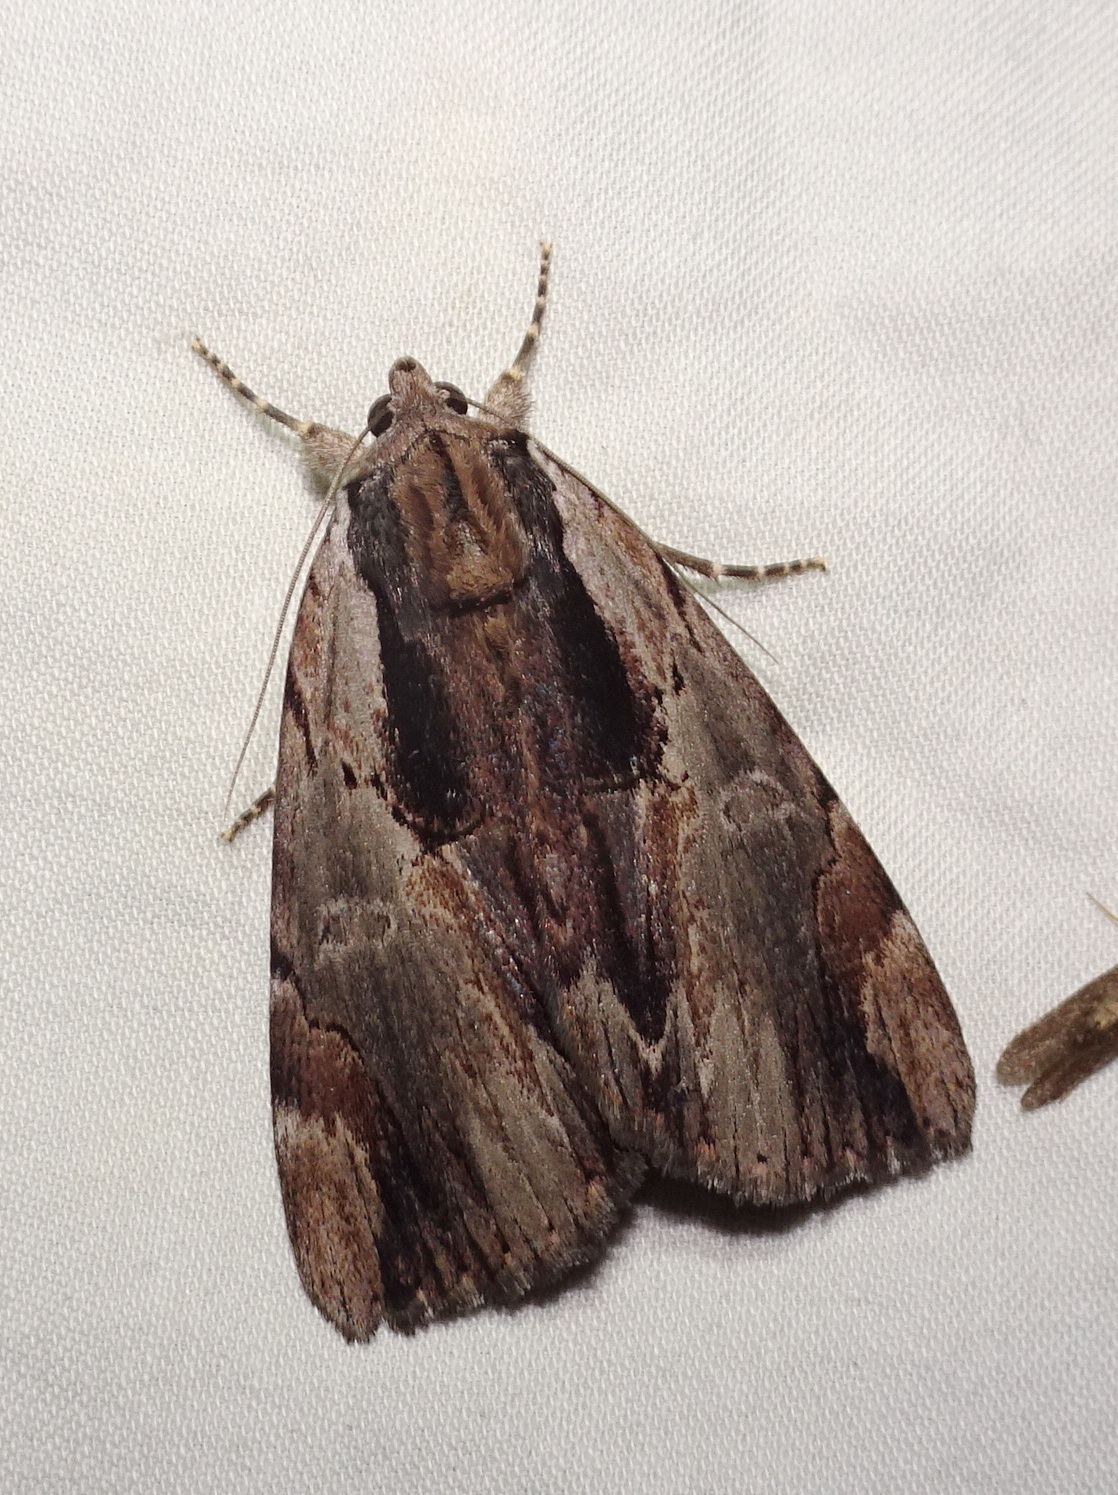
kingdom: Animalia
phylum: Arthropoda
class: Insecta
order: Lepidoptera
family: Erebidae
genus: Catocala
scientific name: Catocala ultronia
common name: Ultronia underwing
